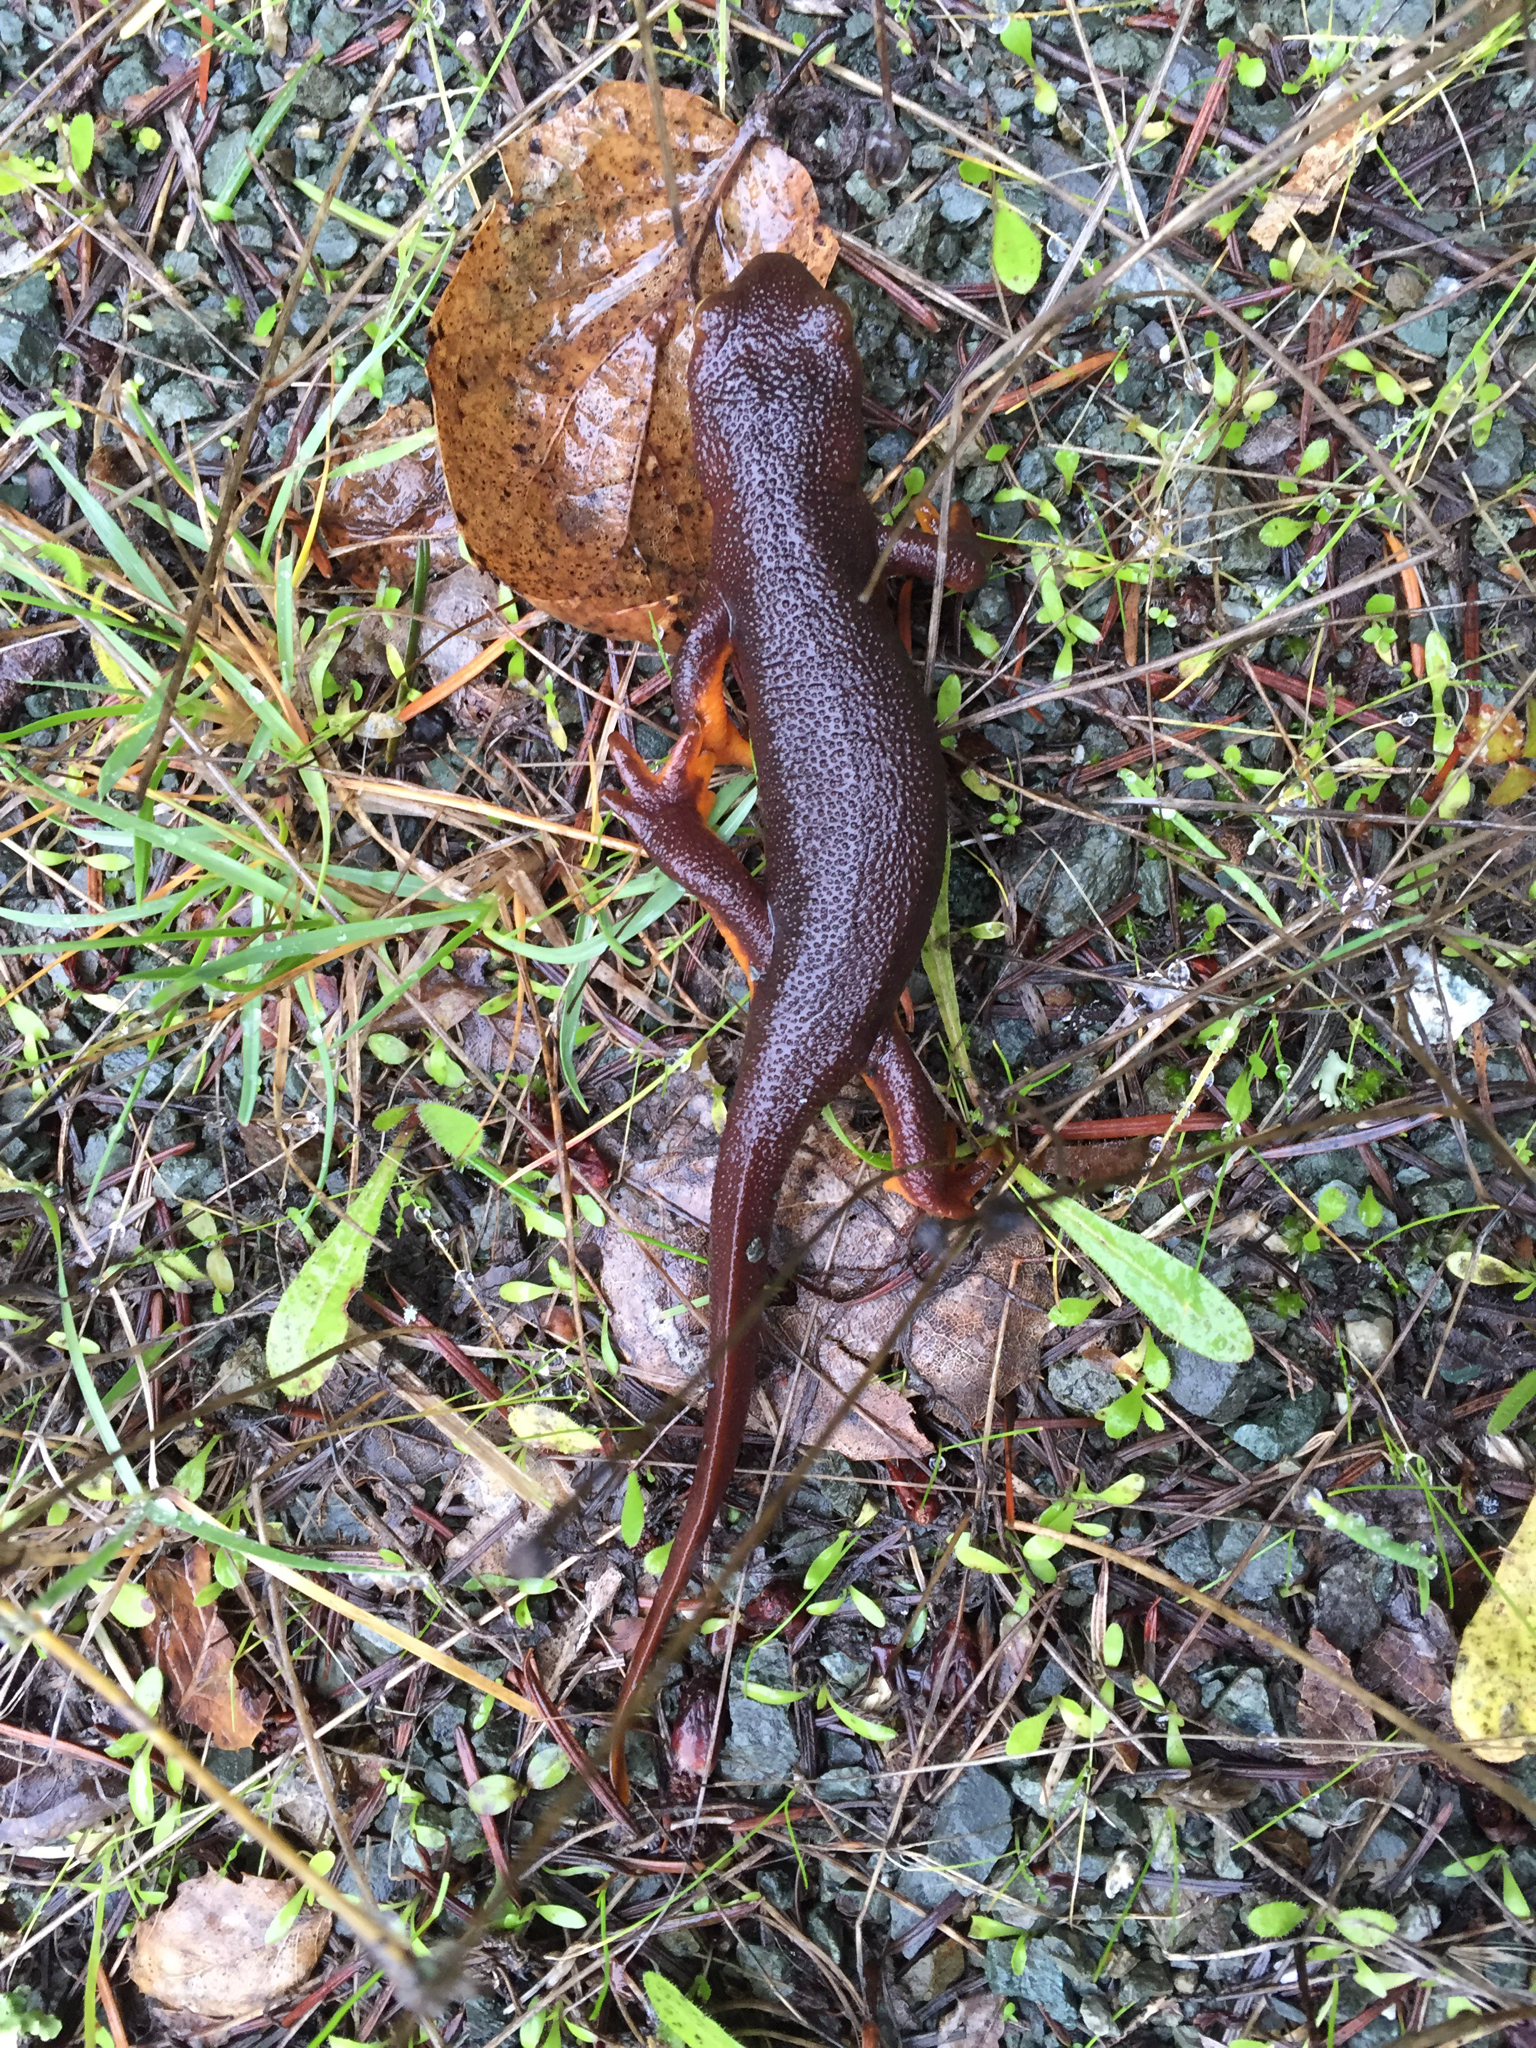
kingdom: Animalia
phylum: Chordata
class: Amphibia
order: Caudata
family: Salamandridae
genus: Taricha
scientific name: Taricha torosa
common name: California newt
